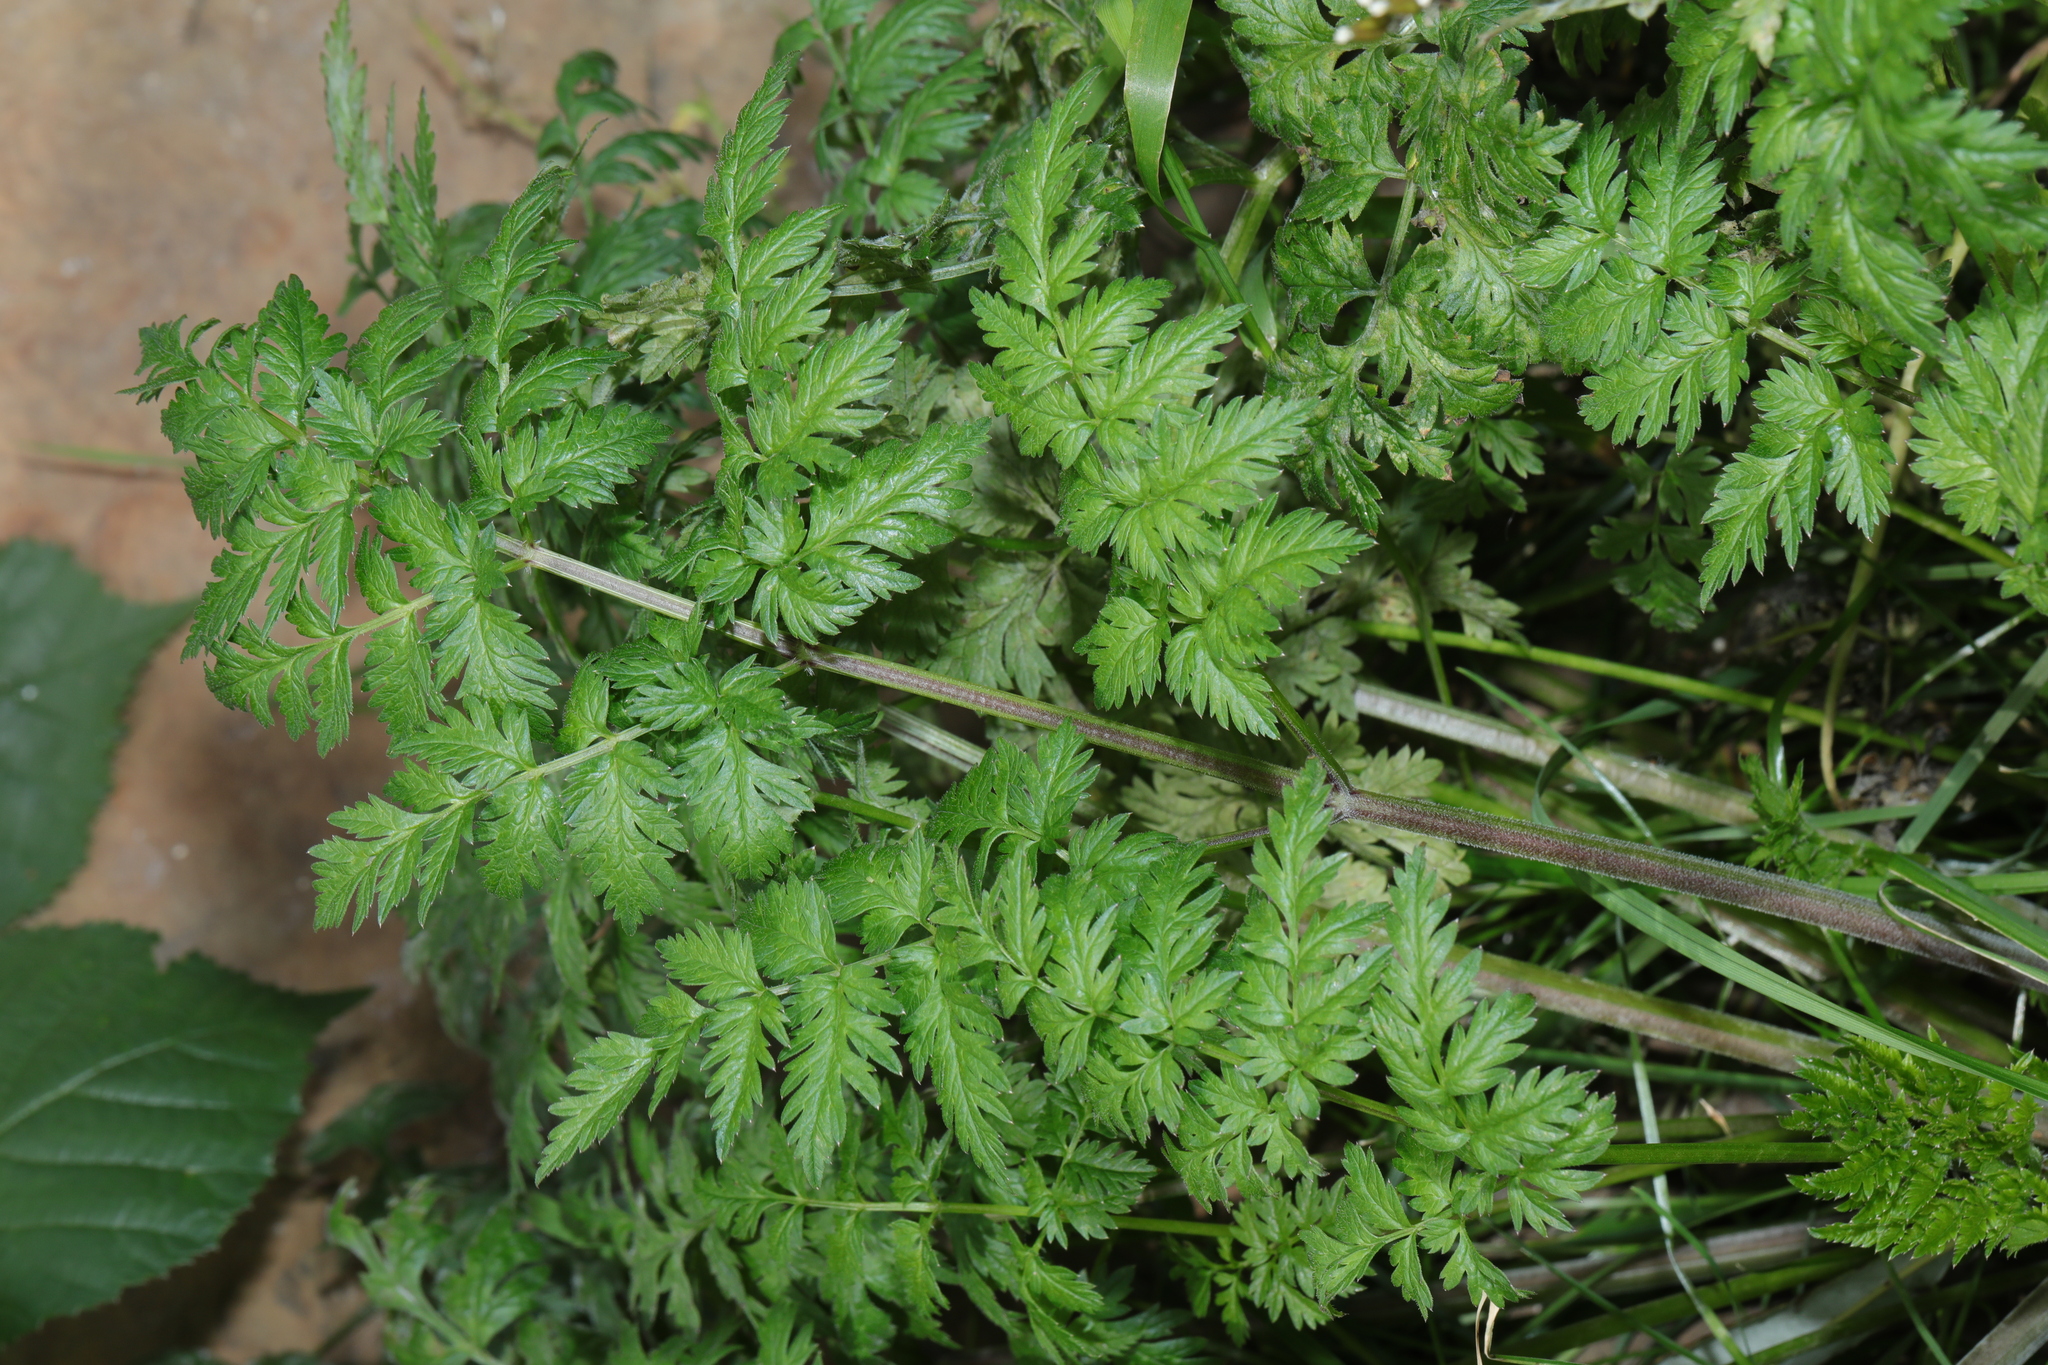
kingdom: Plantae
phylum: Tracheophyta
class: Magnoliopsida
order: Apiales
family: Apiaceae
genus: Anthriscus
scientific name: Anthriscus sylvestris
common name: Cow parsley
